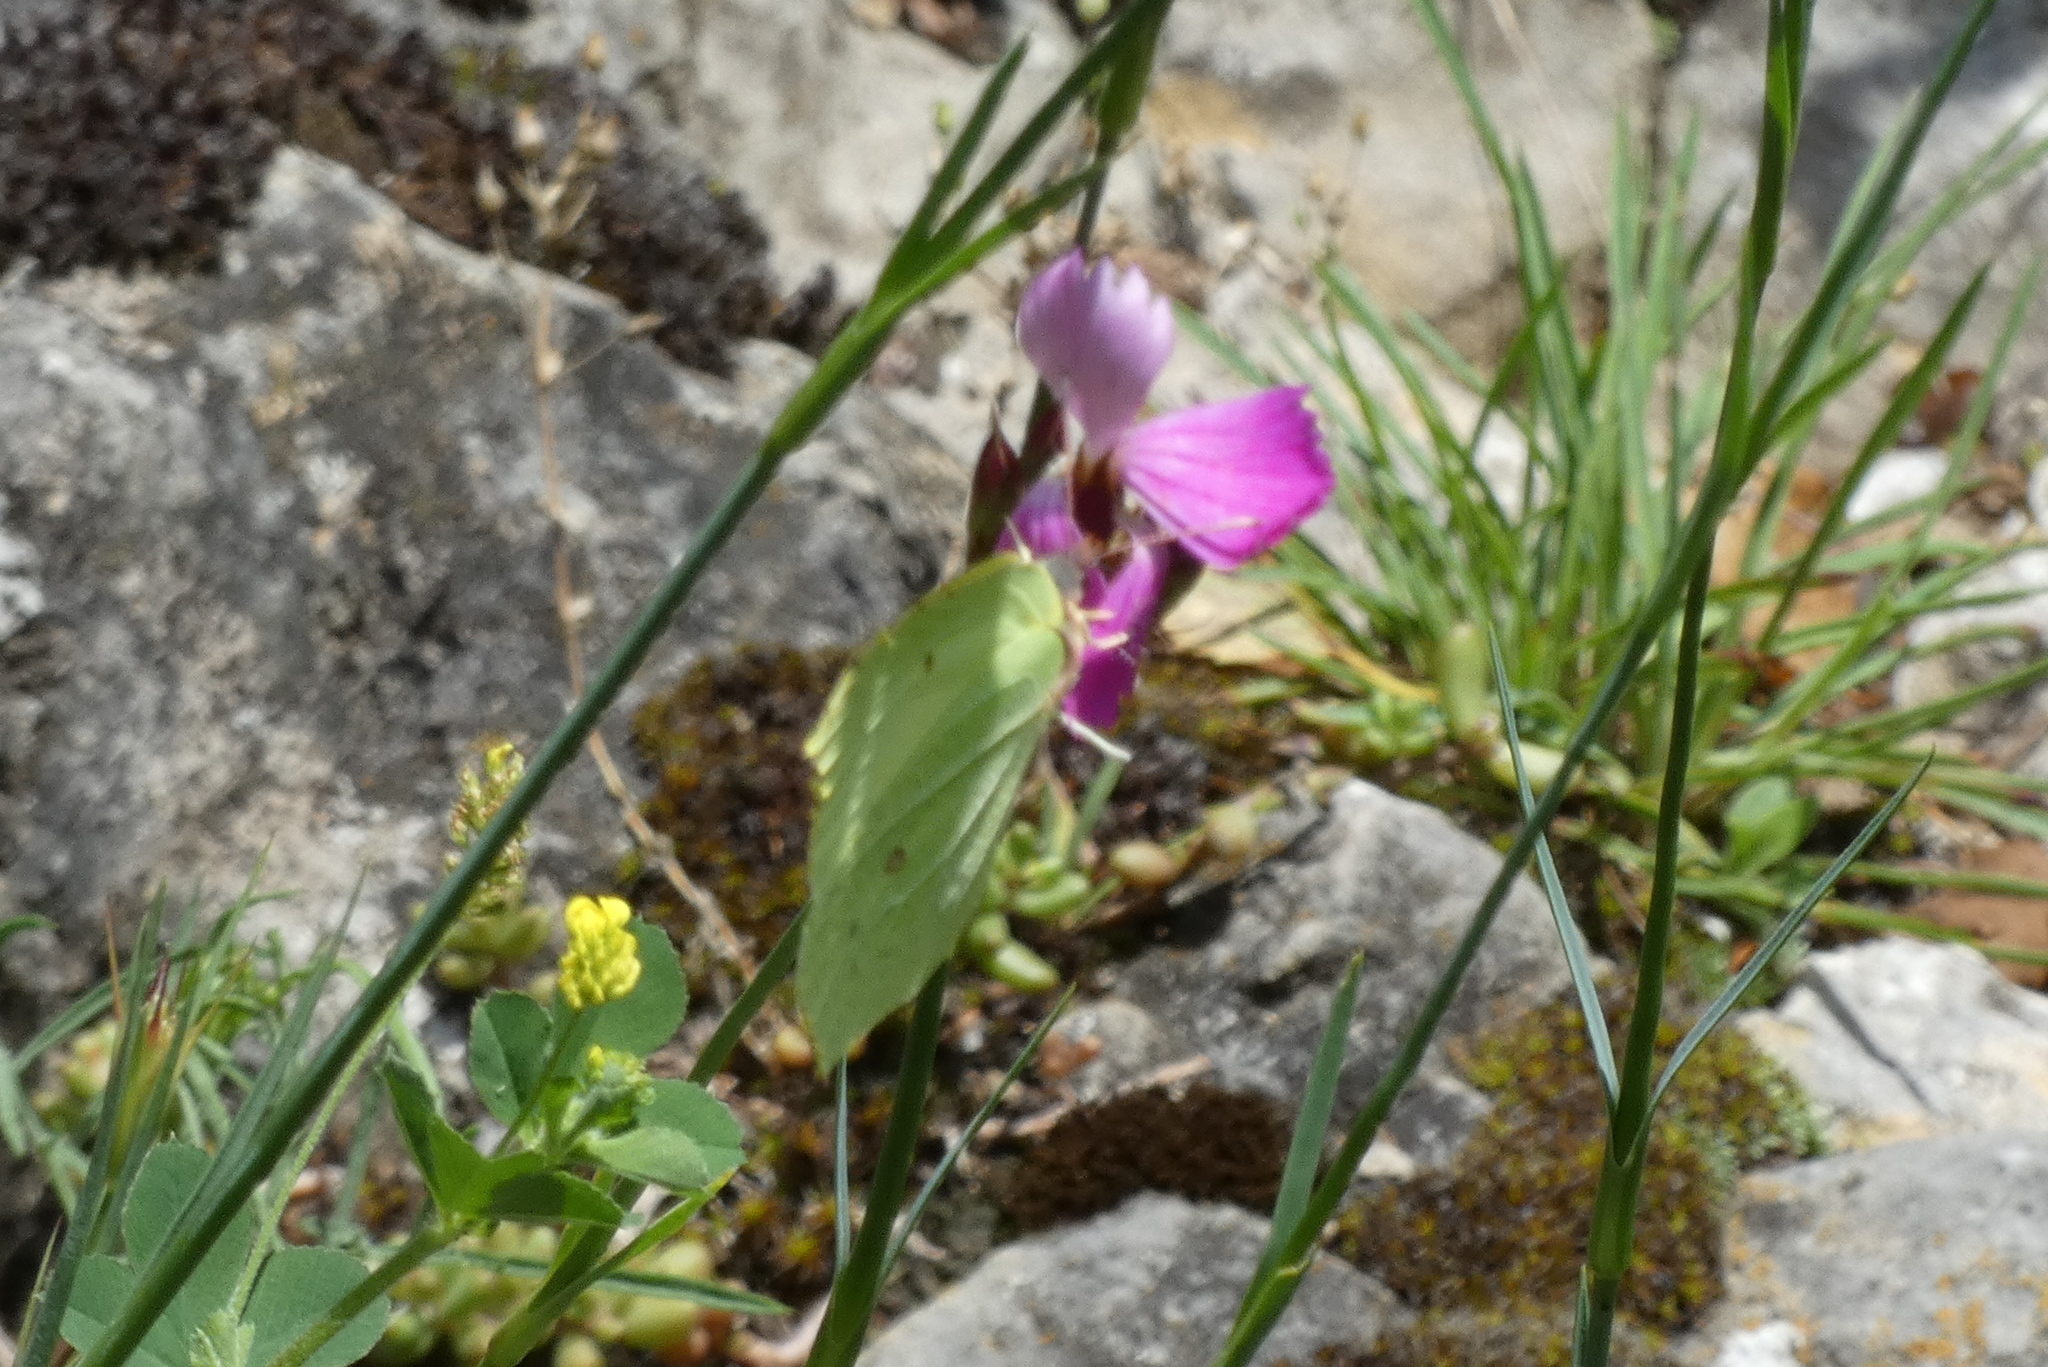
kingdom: Animalia
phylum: Arthropoda
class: Insecta
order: Lepidoptera
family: Pieridae
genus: Gonepteryx
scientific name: Gonepteryx rhamni
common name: Brimstone
